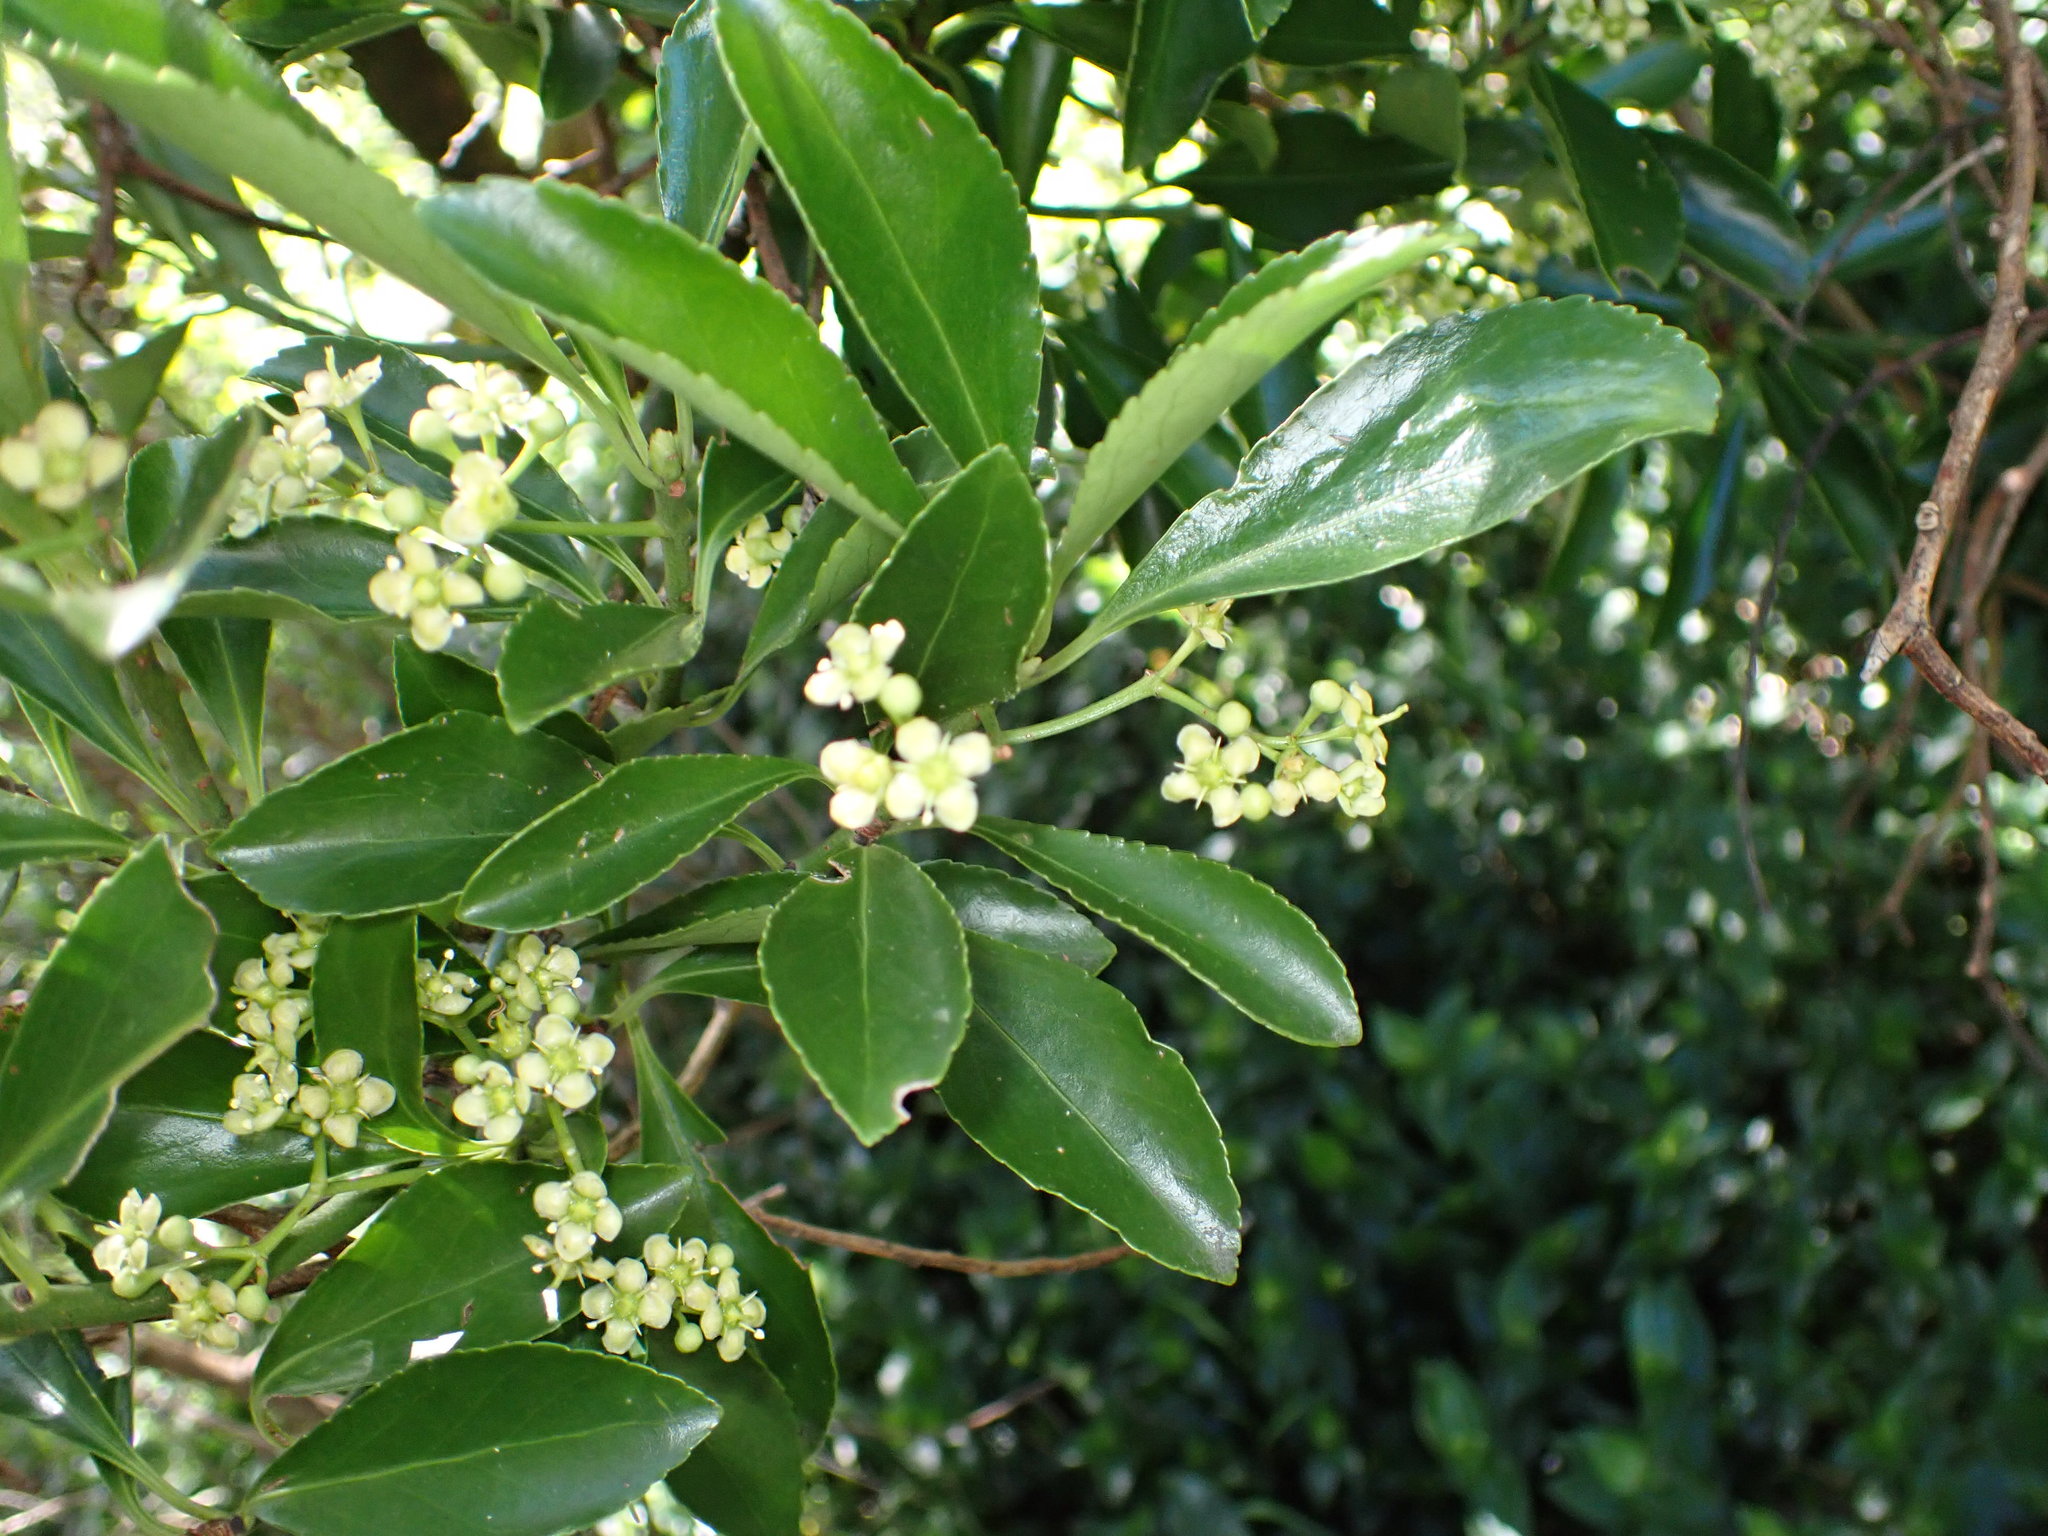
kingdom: Plantae
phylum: Tracheophyta
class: Magnoliopsida
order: Celastrales
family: Celastraceae
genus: Euonymus
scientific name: Euonymus japonicus
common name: Japanese spindletree
